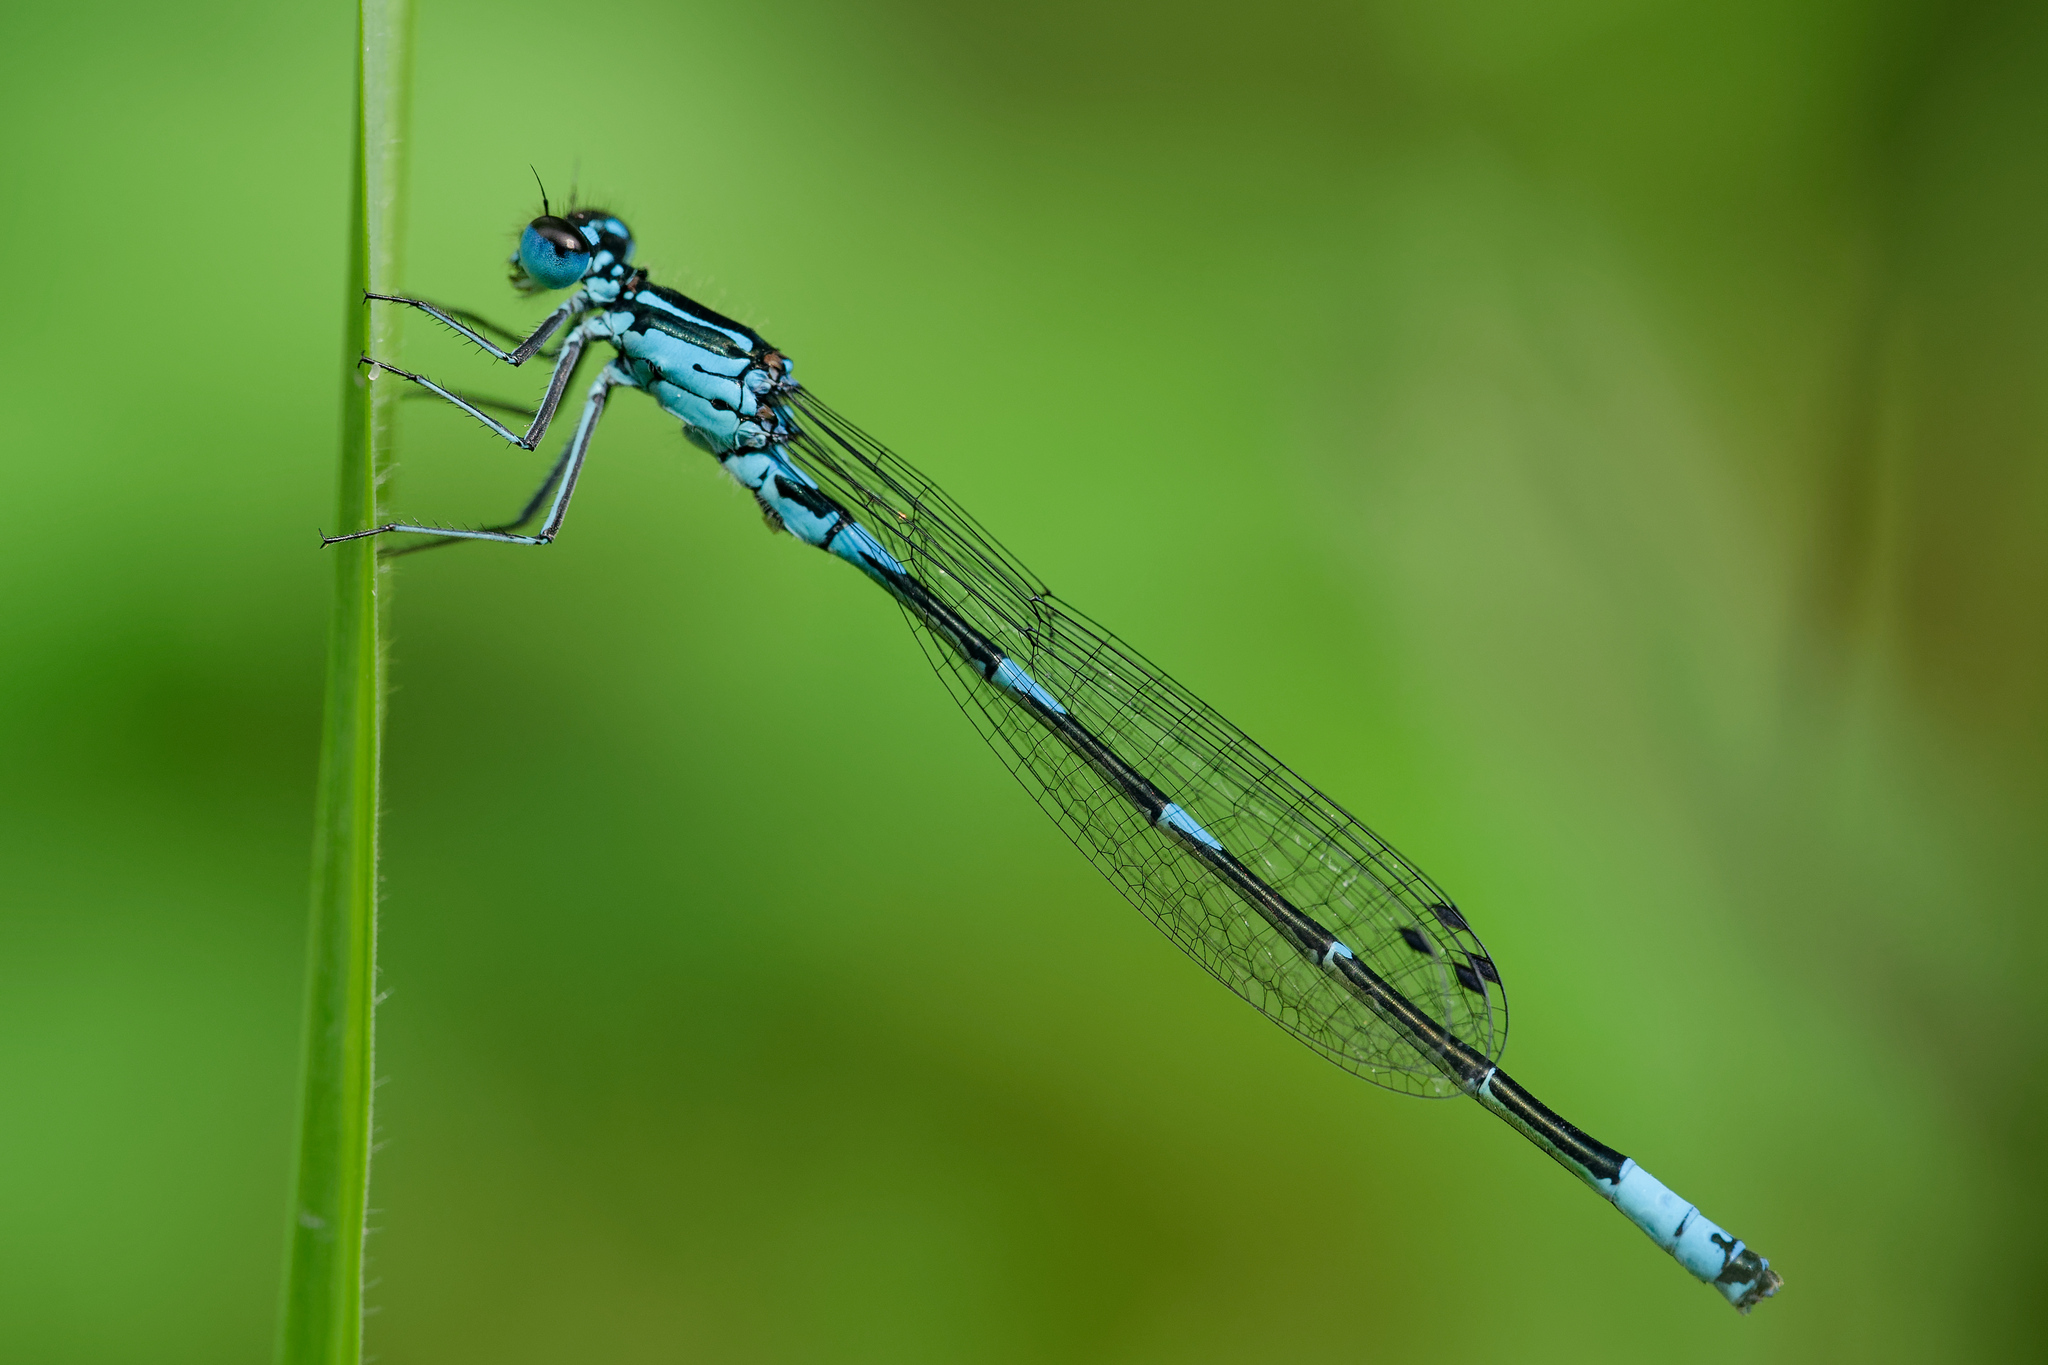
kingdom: Animalia
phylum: Arthropoda
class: Insecta
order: Odonata
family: Coenagrionidae
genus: Coenagrion
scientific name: Coenagrion pulchellum
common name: Variable bluet
